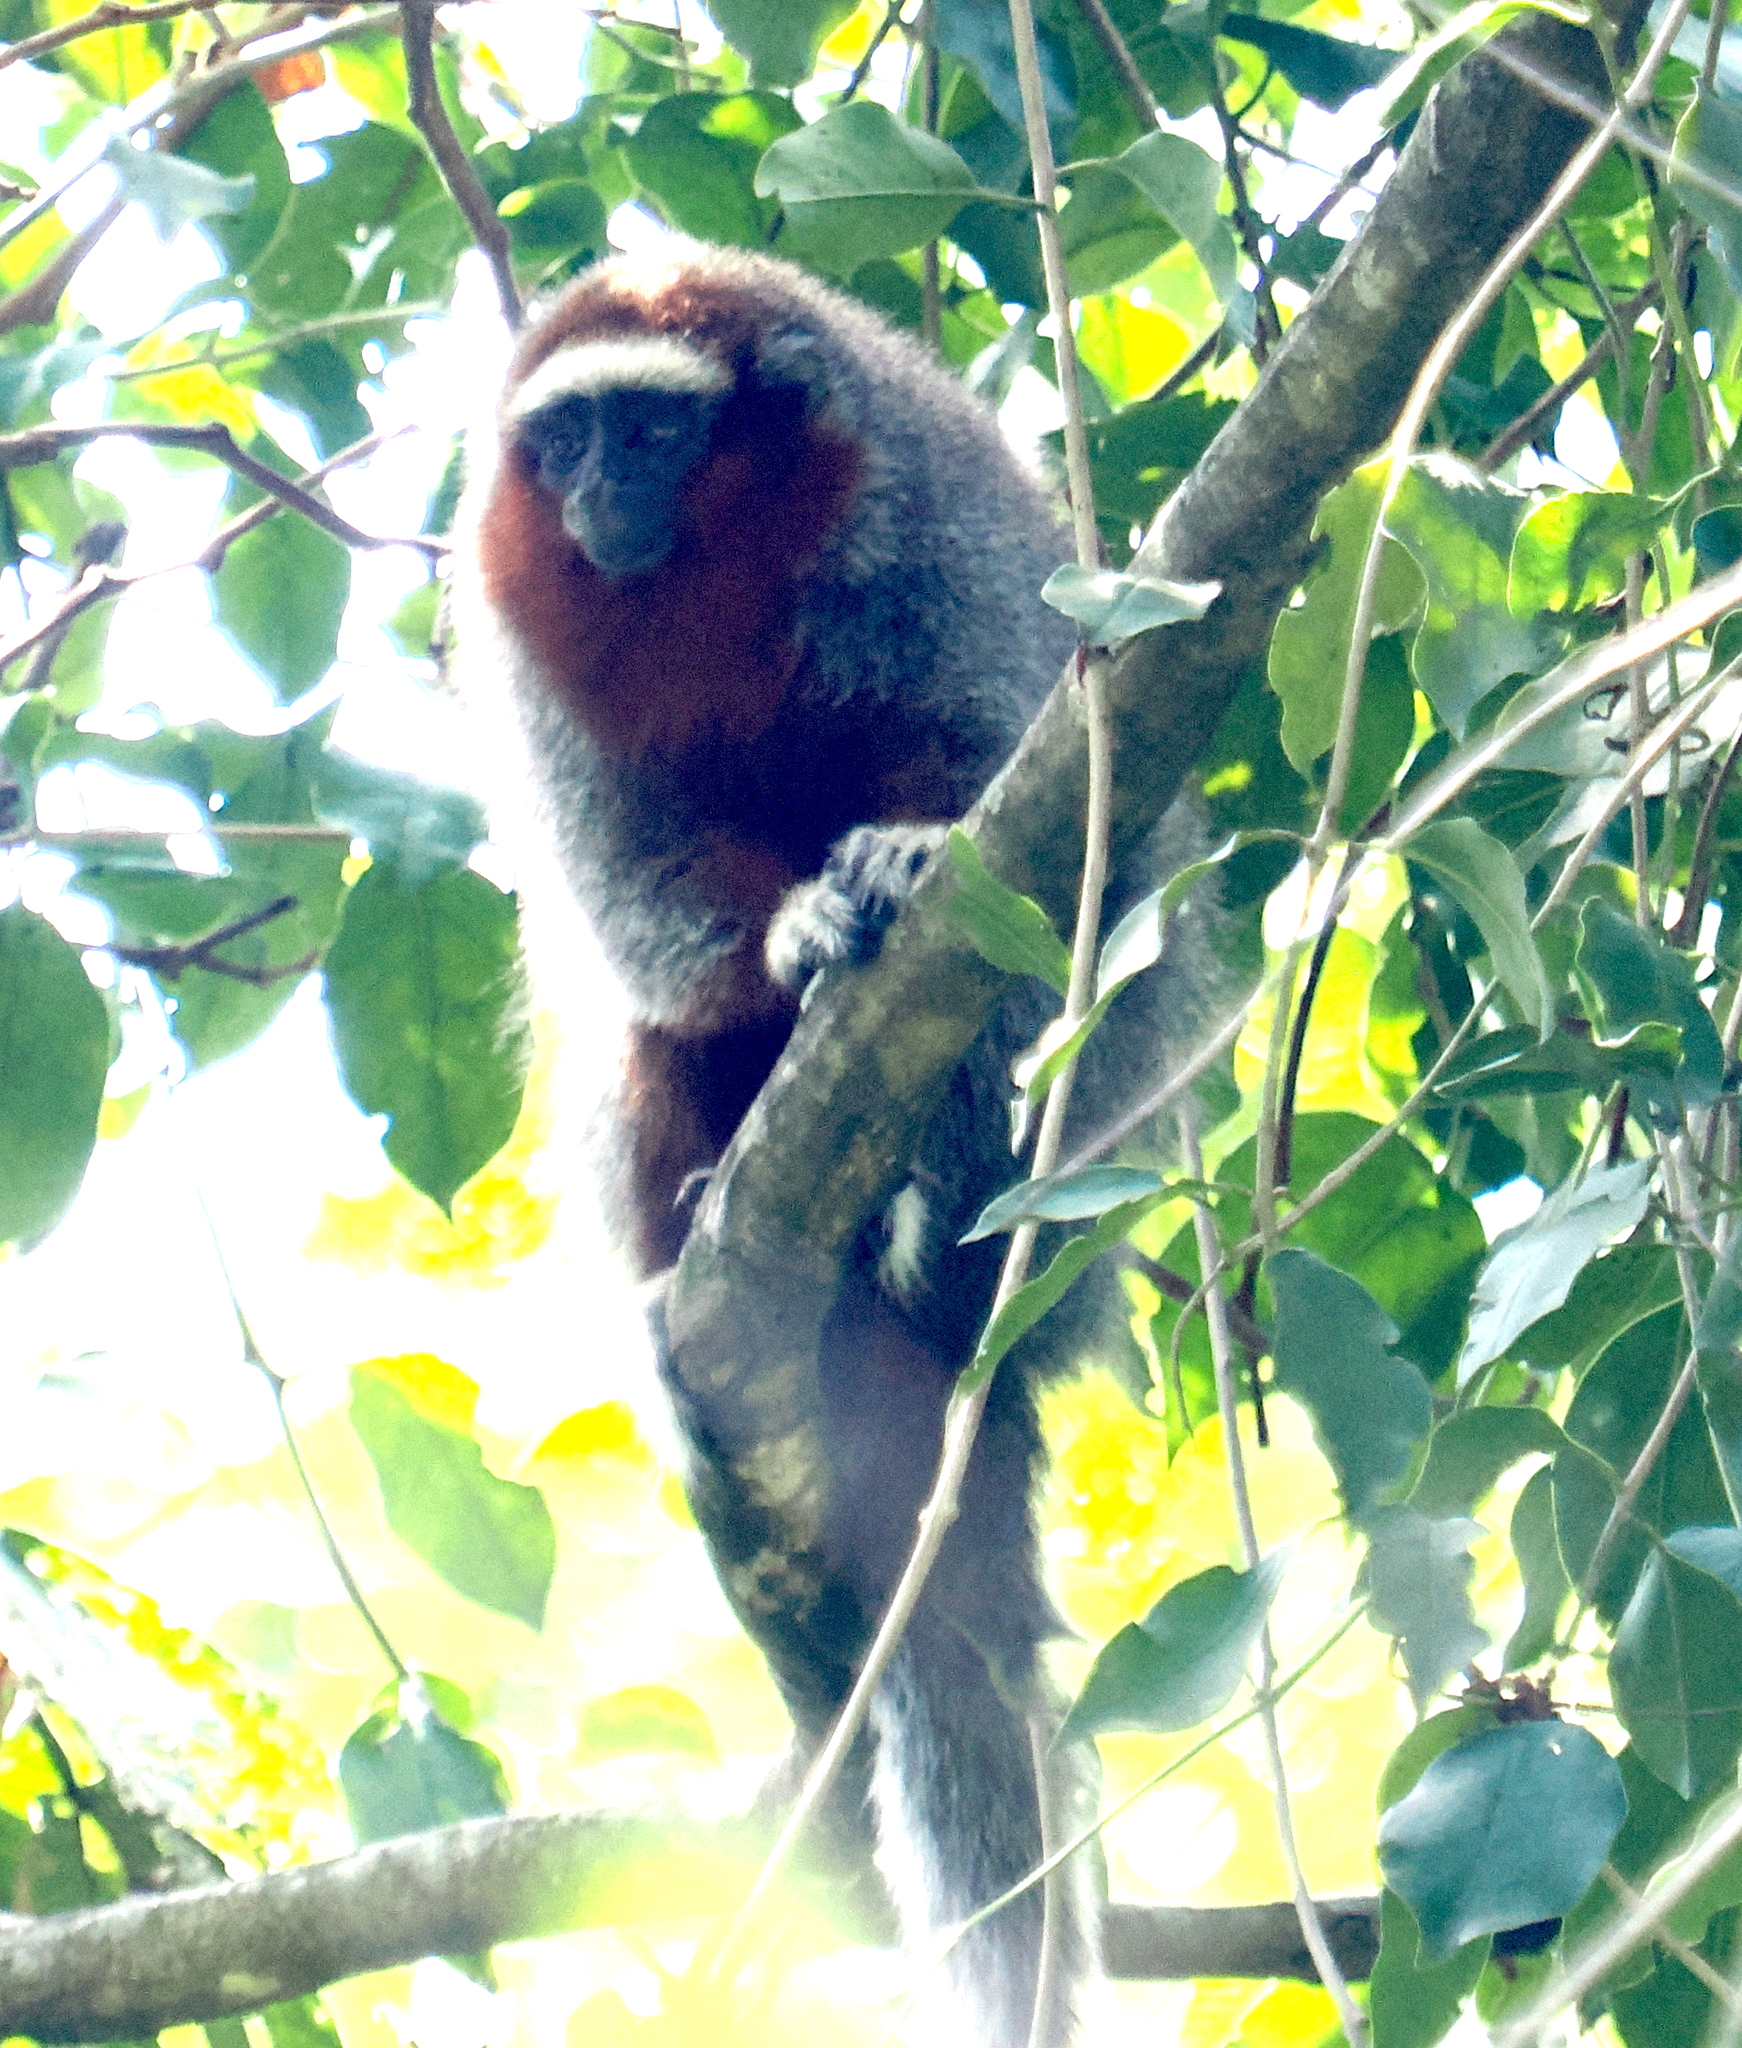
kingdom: Animalia
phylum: Chordata
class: Mammalia
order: Primates
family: Pitheciidae
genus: Plecturocebus
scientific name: Plecturocebus ornatus
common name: Ornate titi
